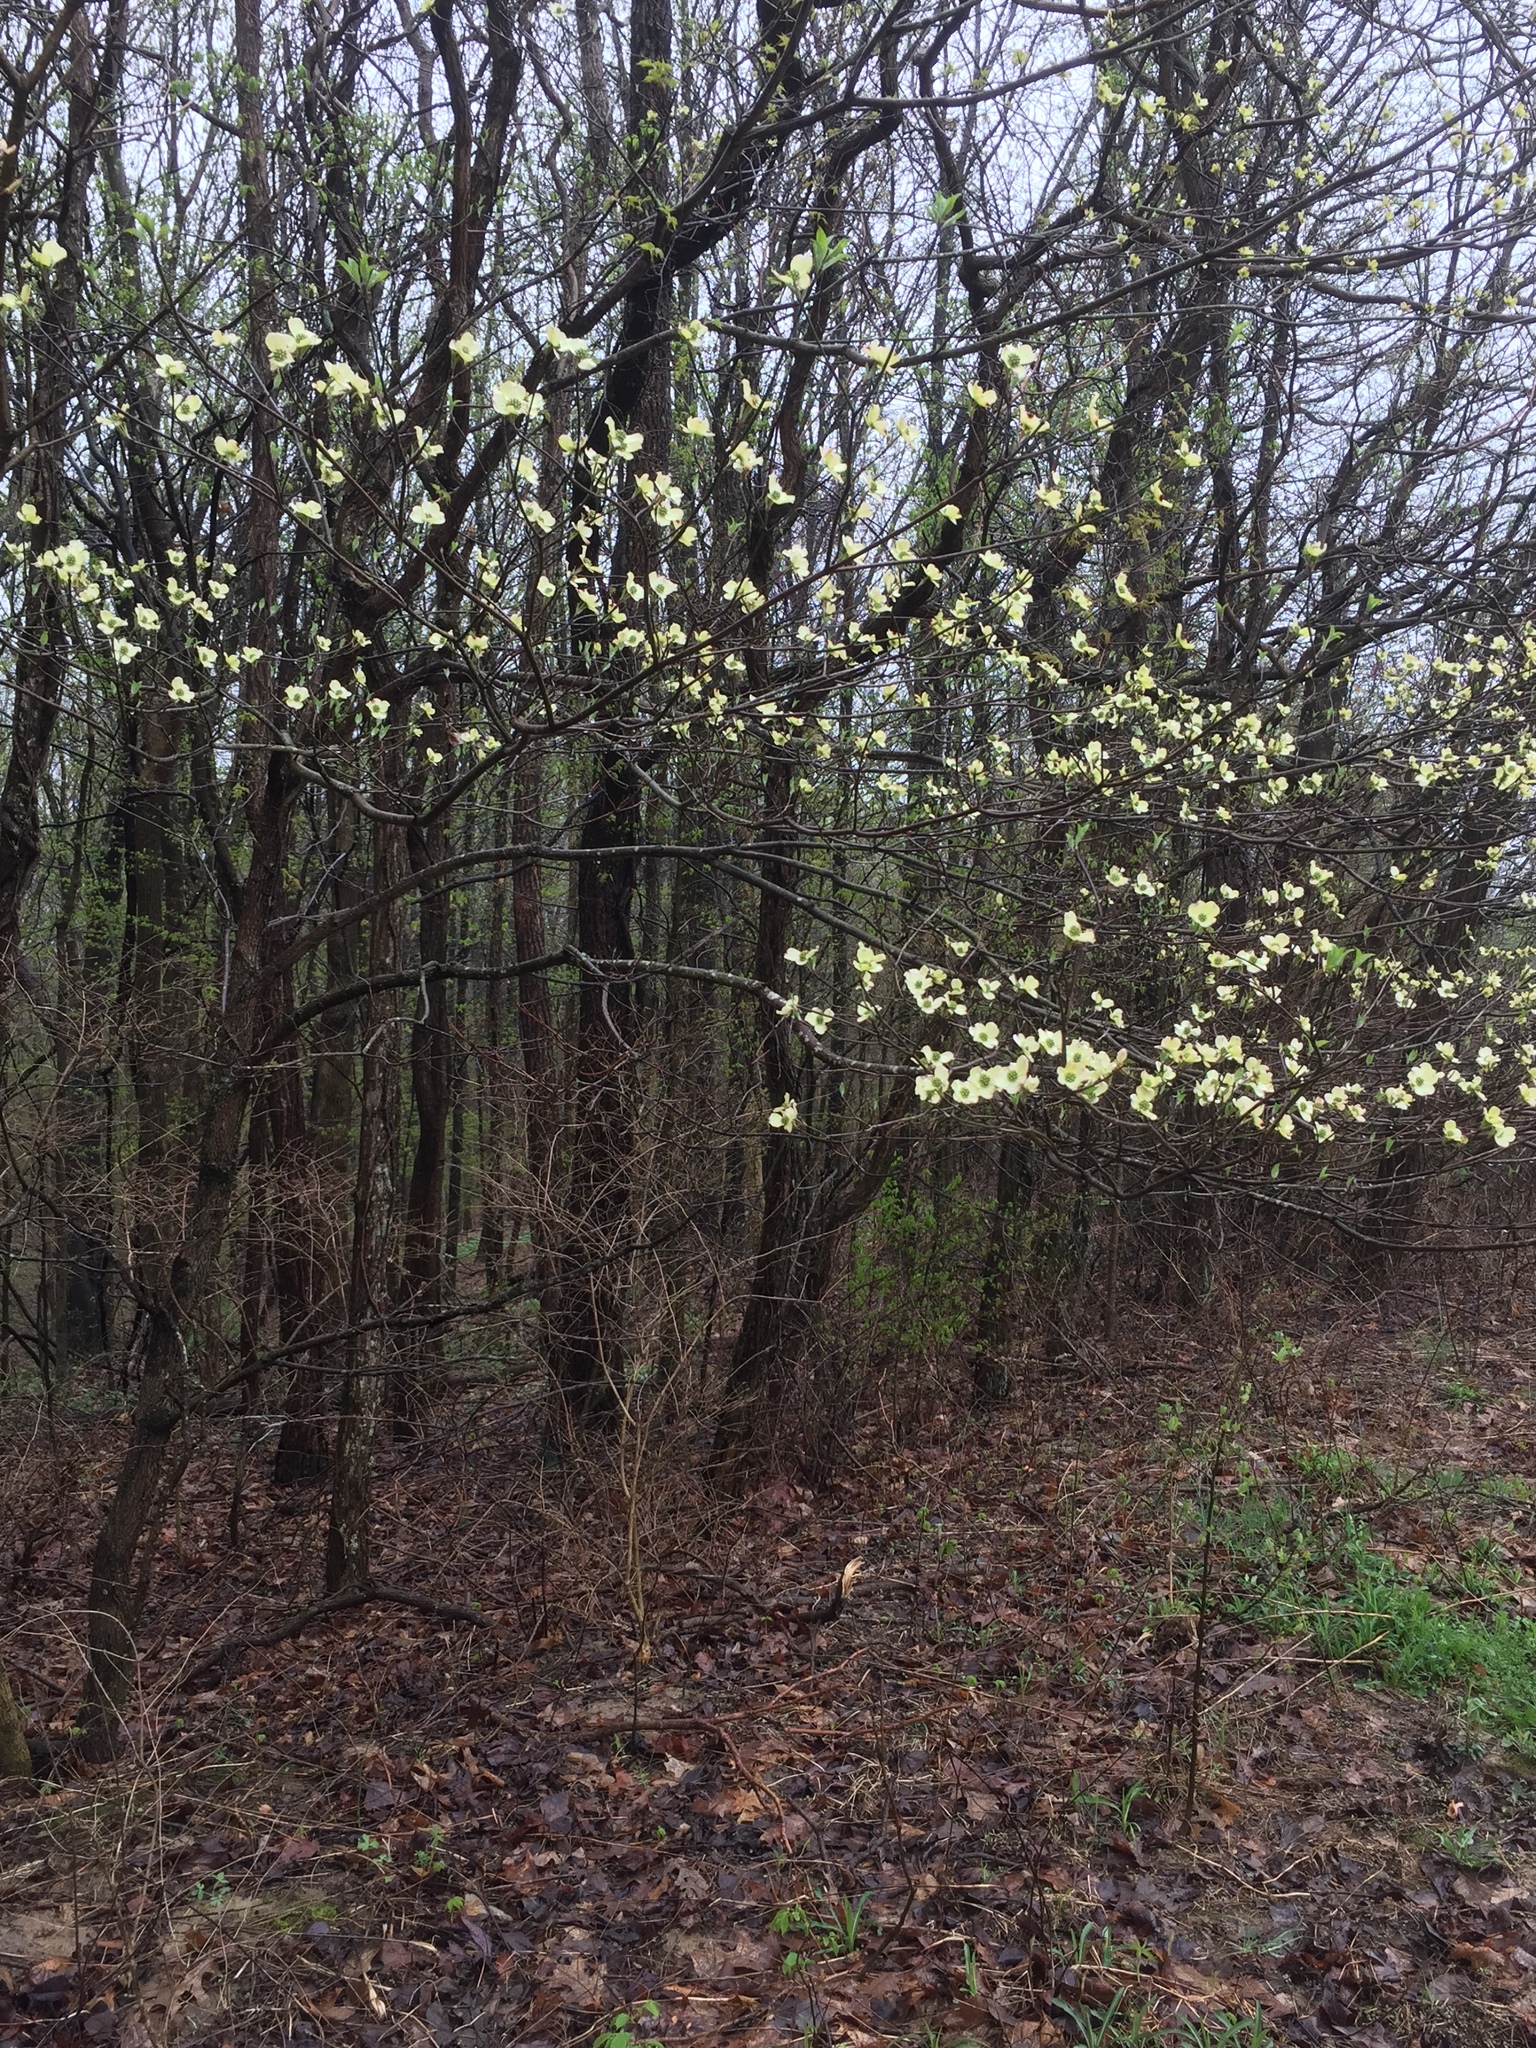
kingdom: Plantae
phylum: Tracheophyta
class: Magnoliopsida
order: Cornales
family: Cornaceae
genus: Cornus
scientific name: Cornus florida
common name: Flowering dogwood
